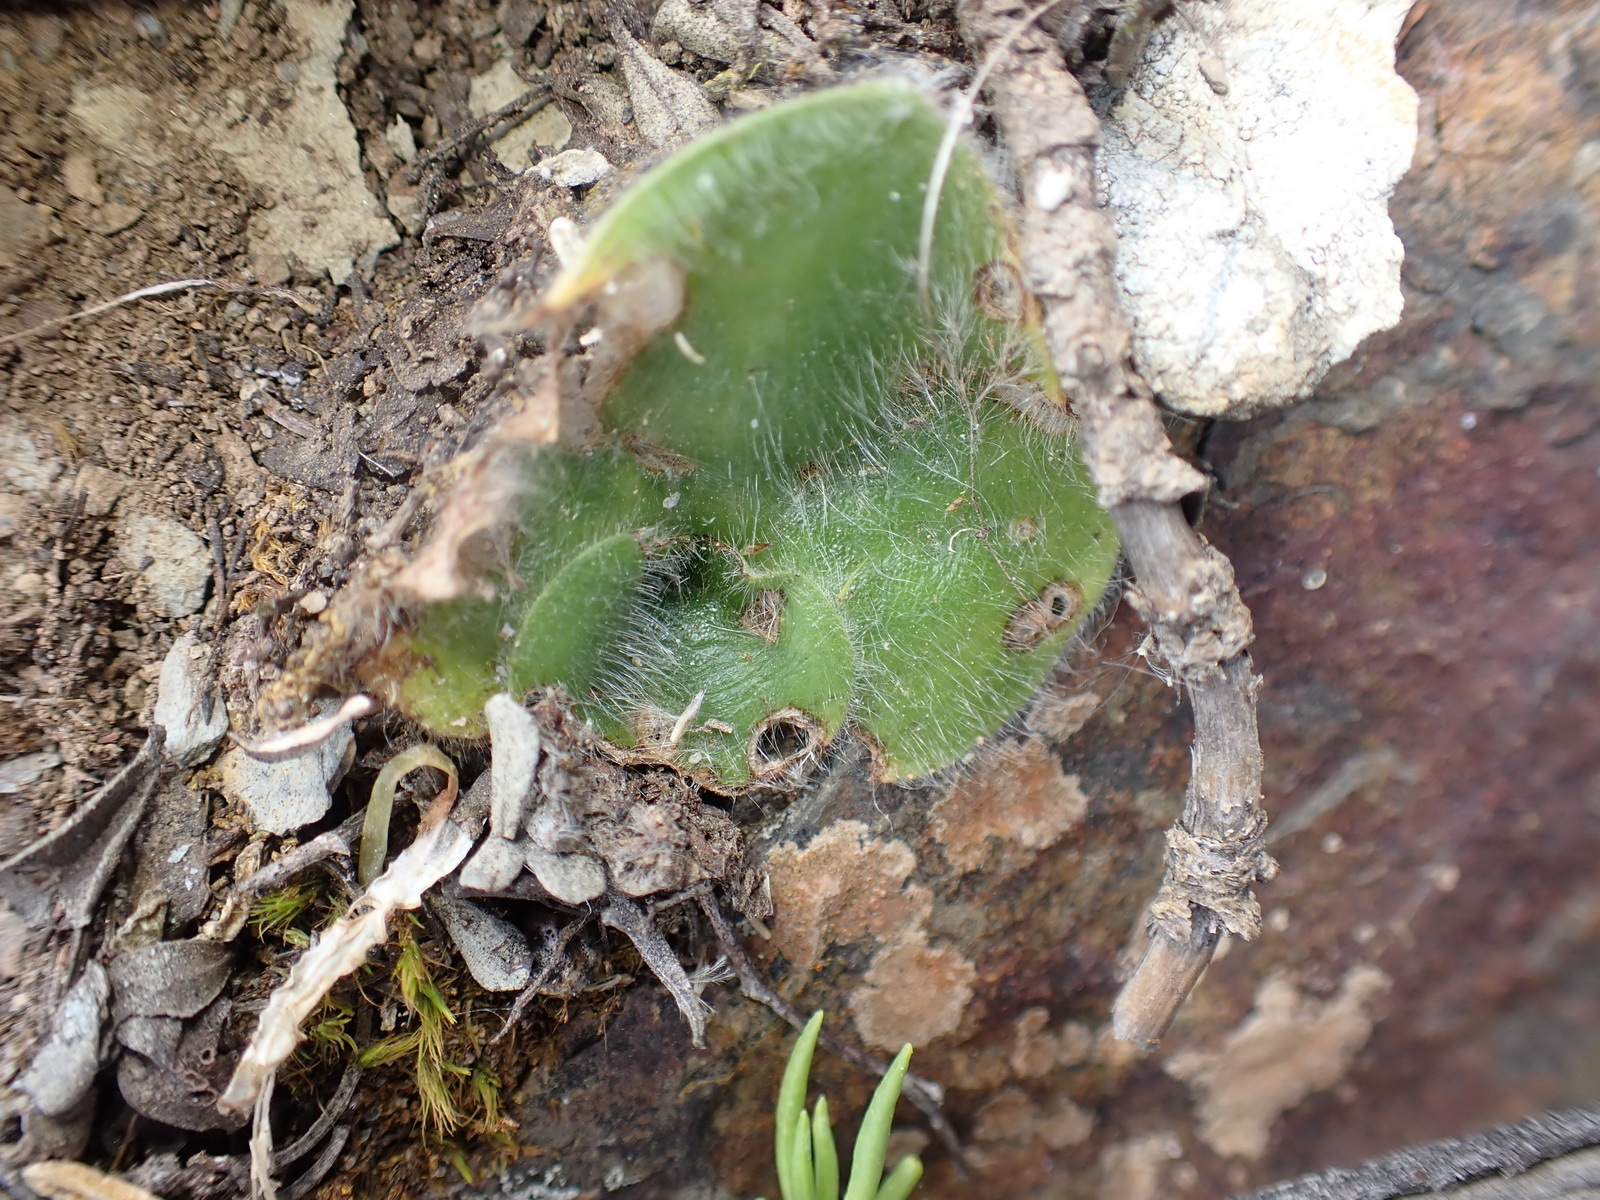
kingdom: Plantae
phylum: Tracheophyta
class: Liliopsida
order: Asparagales
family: Orchidaceae
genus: Holothrix
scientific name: Holothrix villosa
